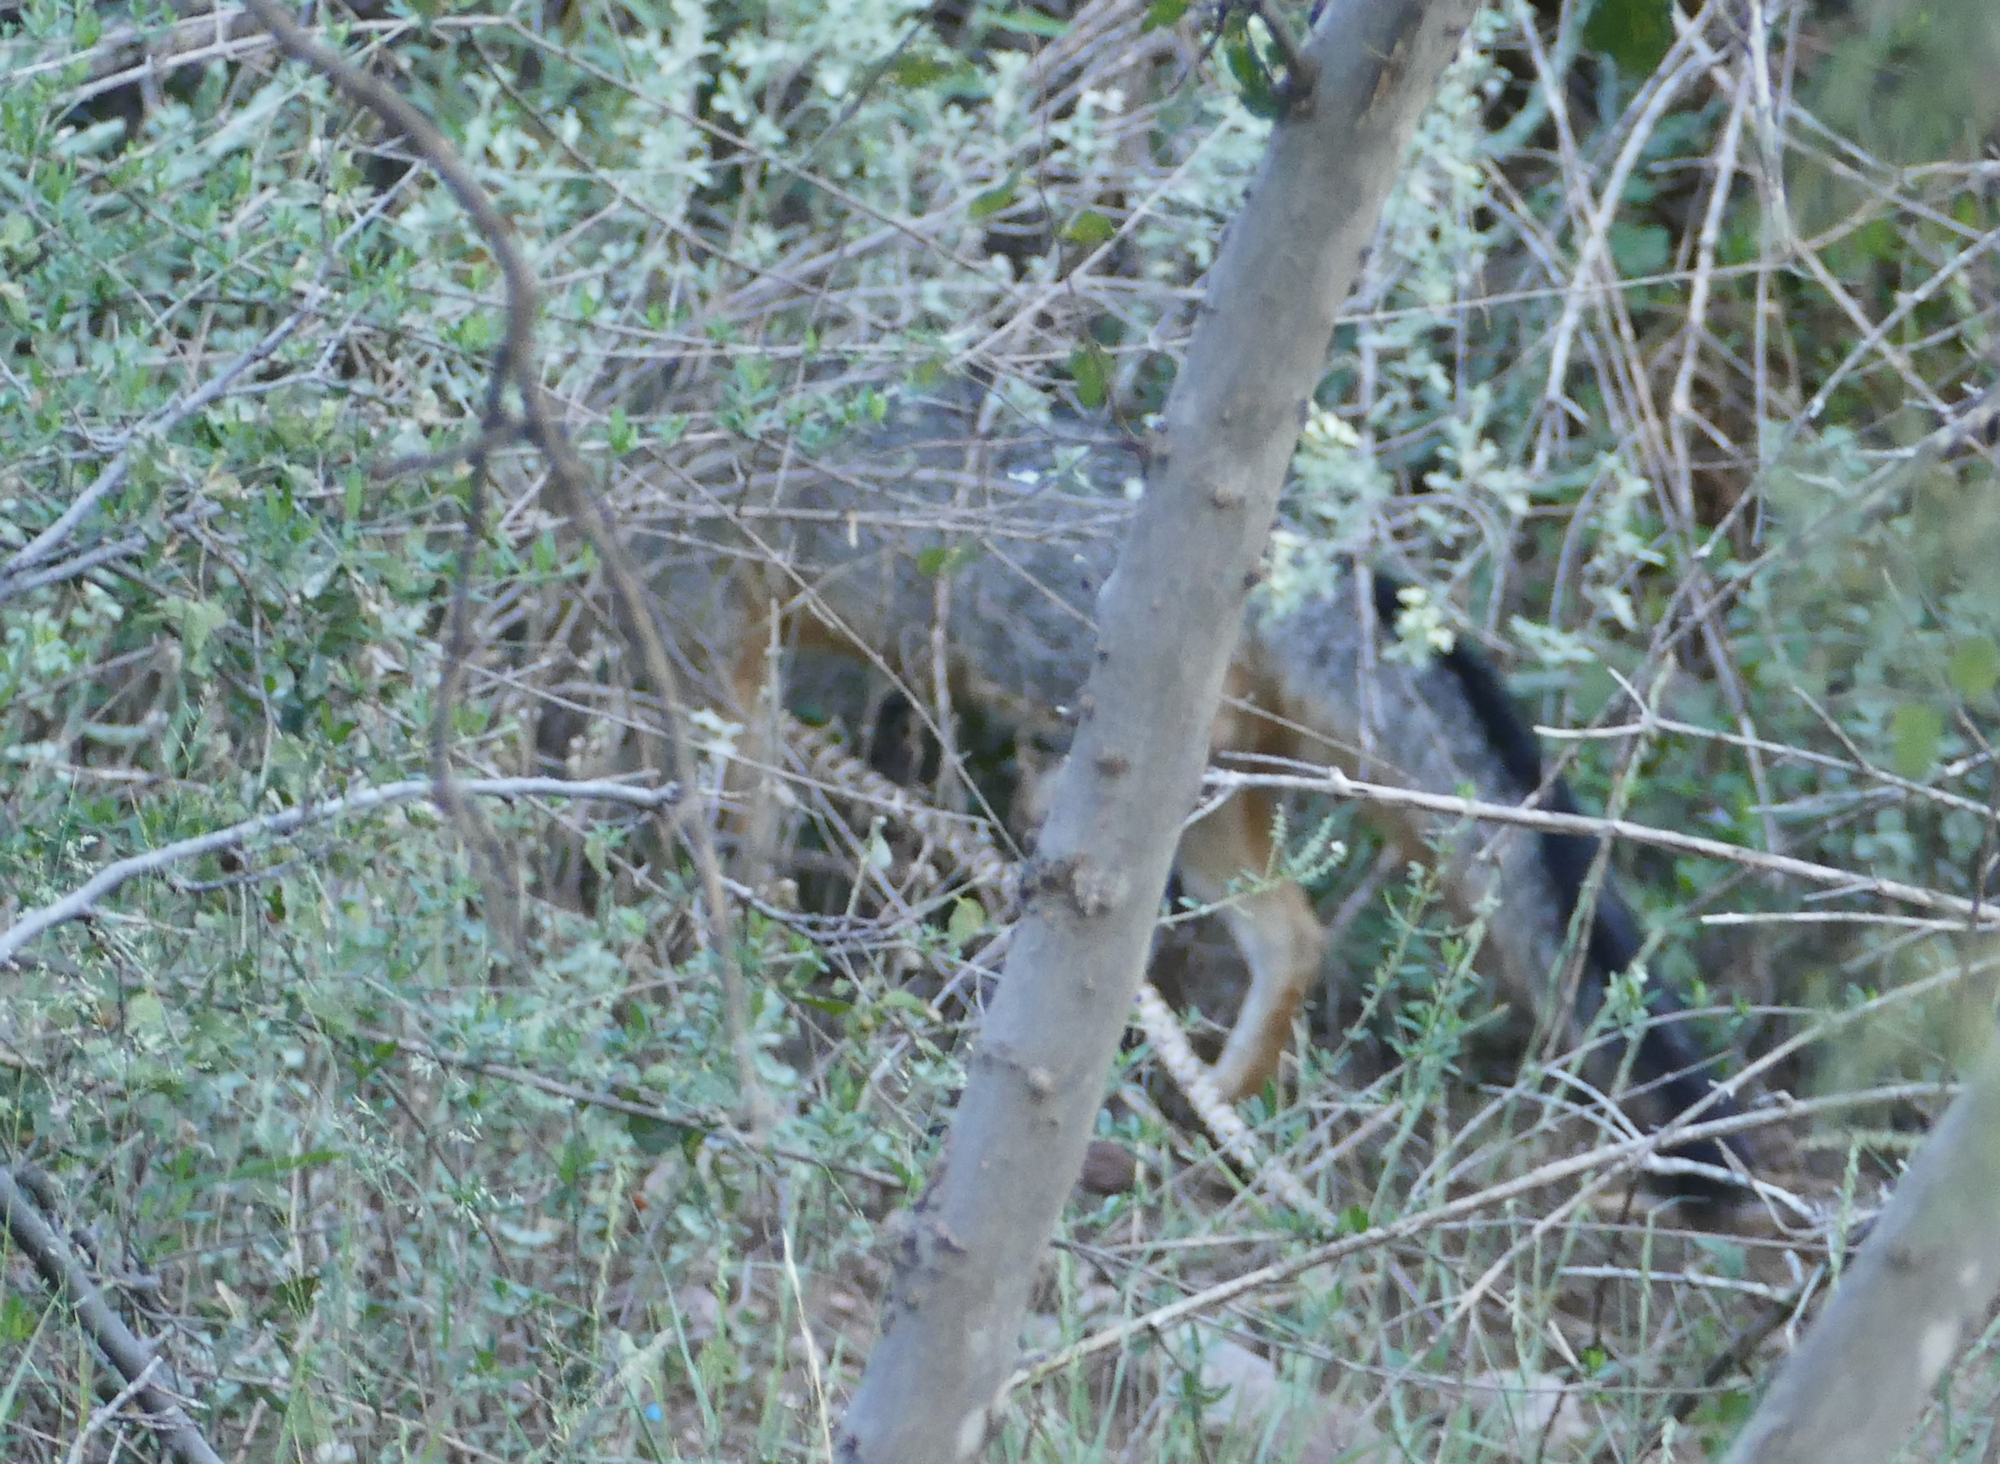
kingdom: Animalia
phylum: Chordata
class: Mammalia
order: Carnivora
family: Canidae
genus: Urocyon
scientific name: Urocyon cinereoargenteus
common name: Gray fox
